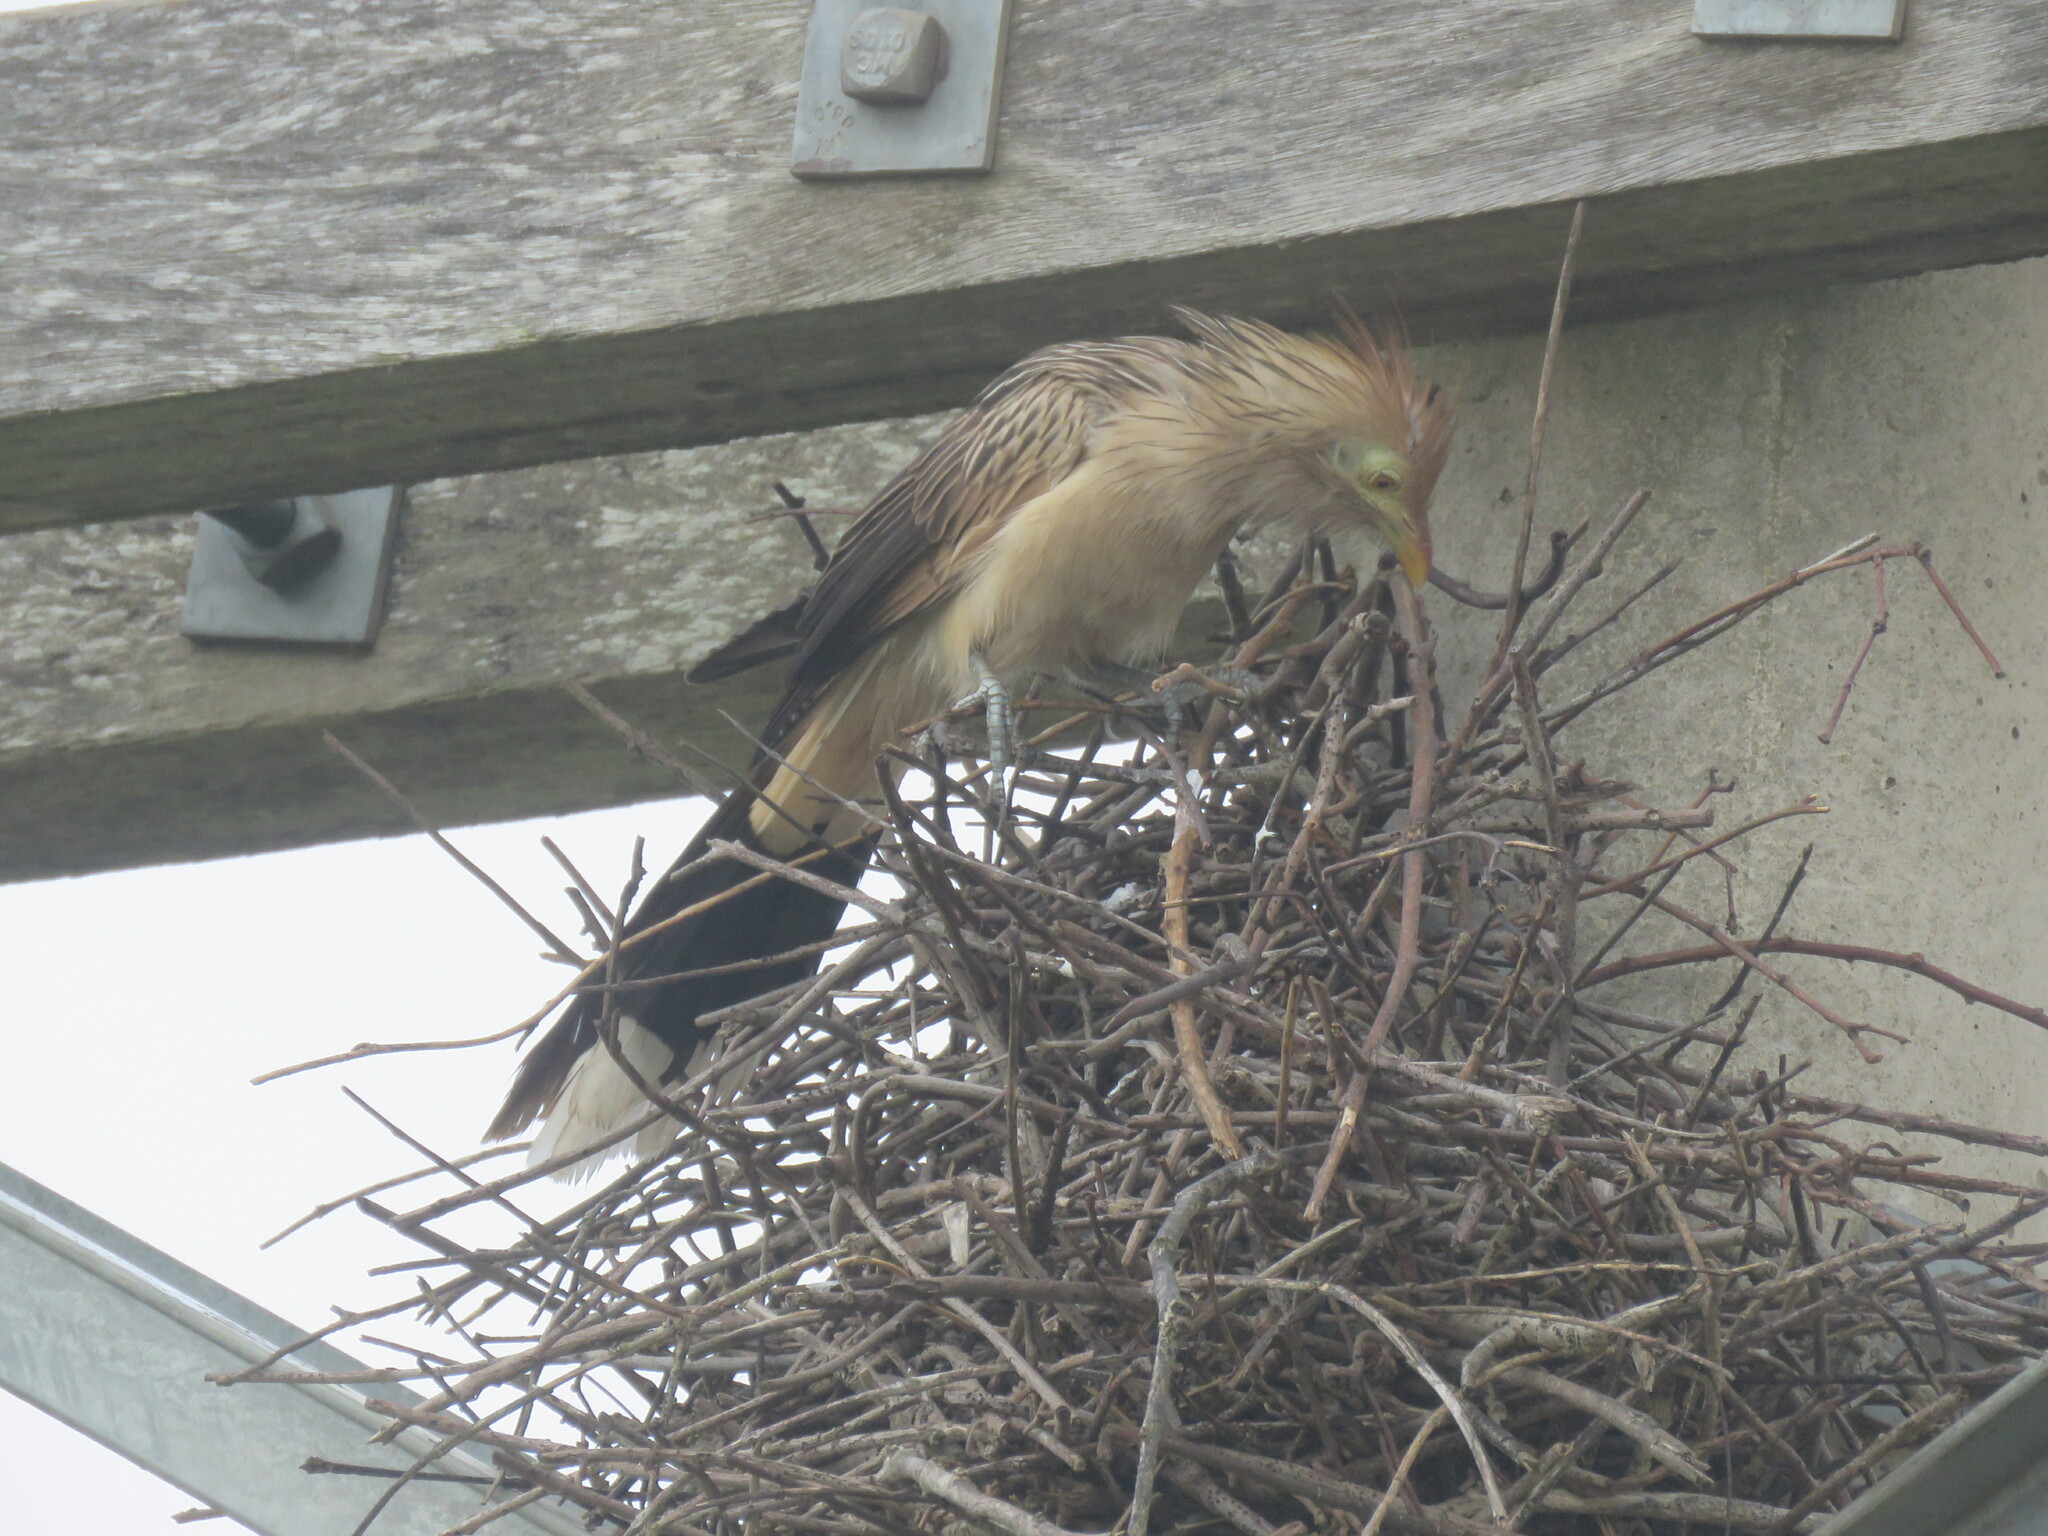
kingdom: Animalia
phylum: Chordata
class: Aves
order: Cuculiformes
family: Cuculidae
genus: Guira
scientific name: Guira guira
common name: Guira cuckoo
